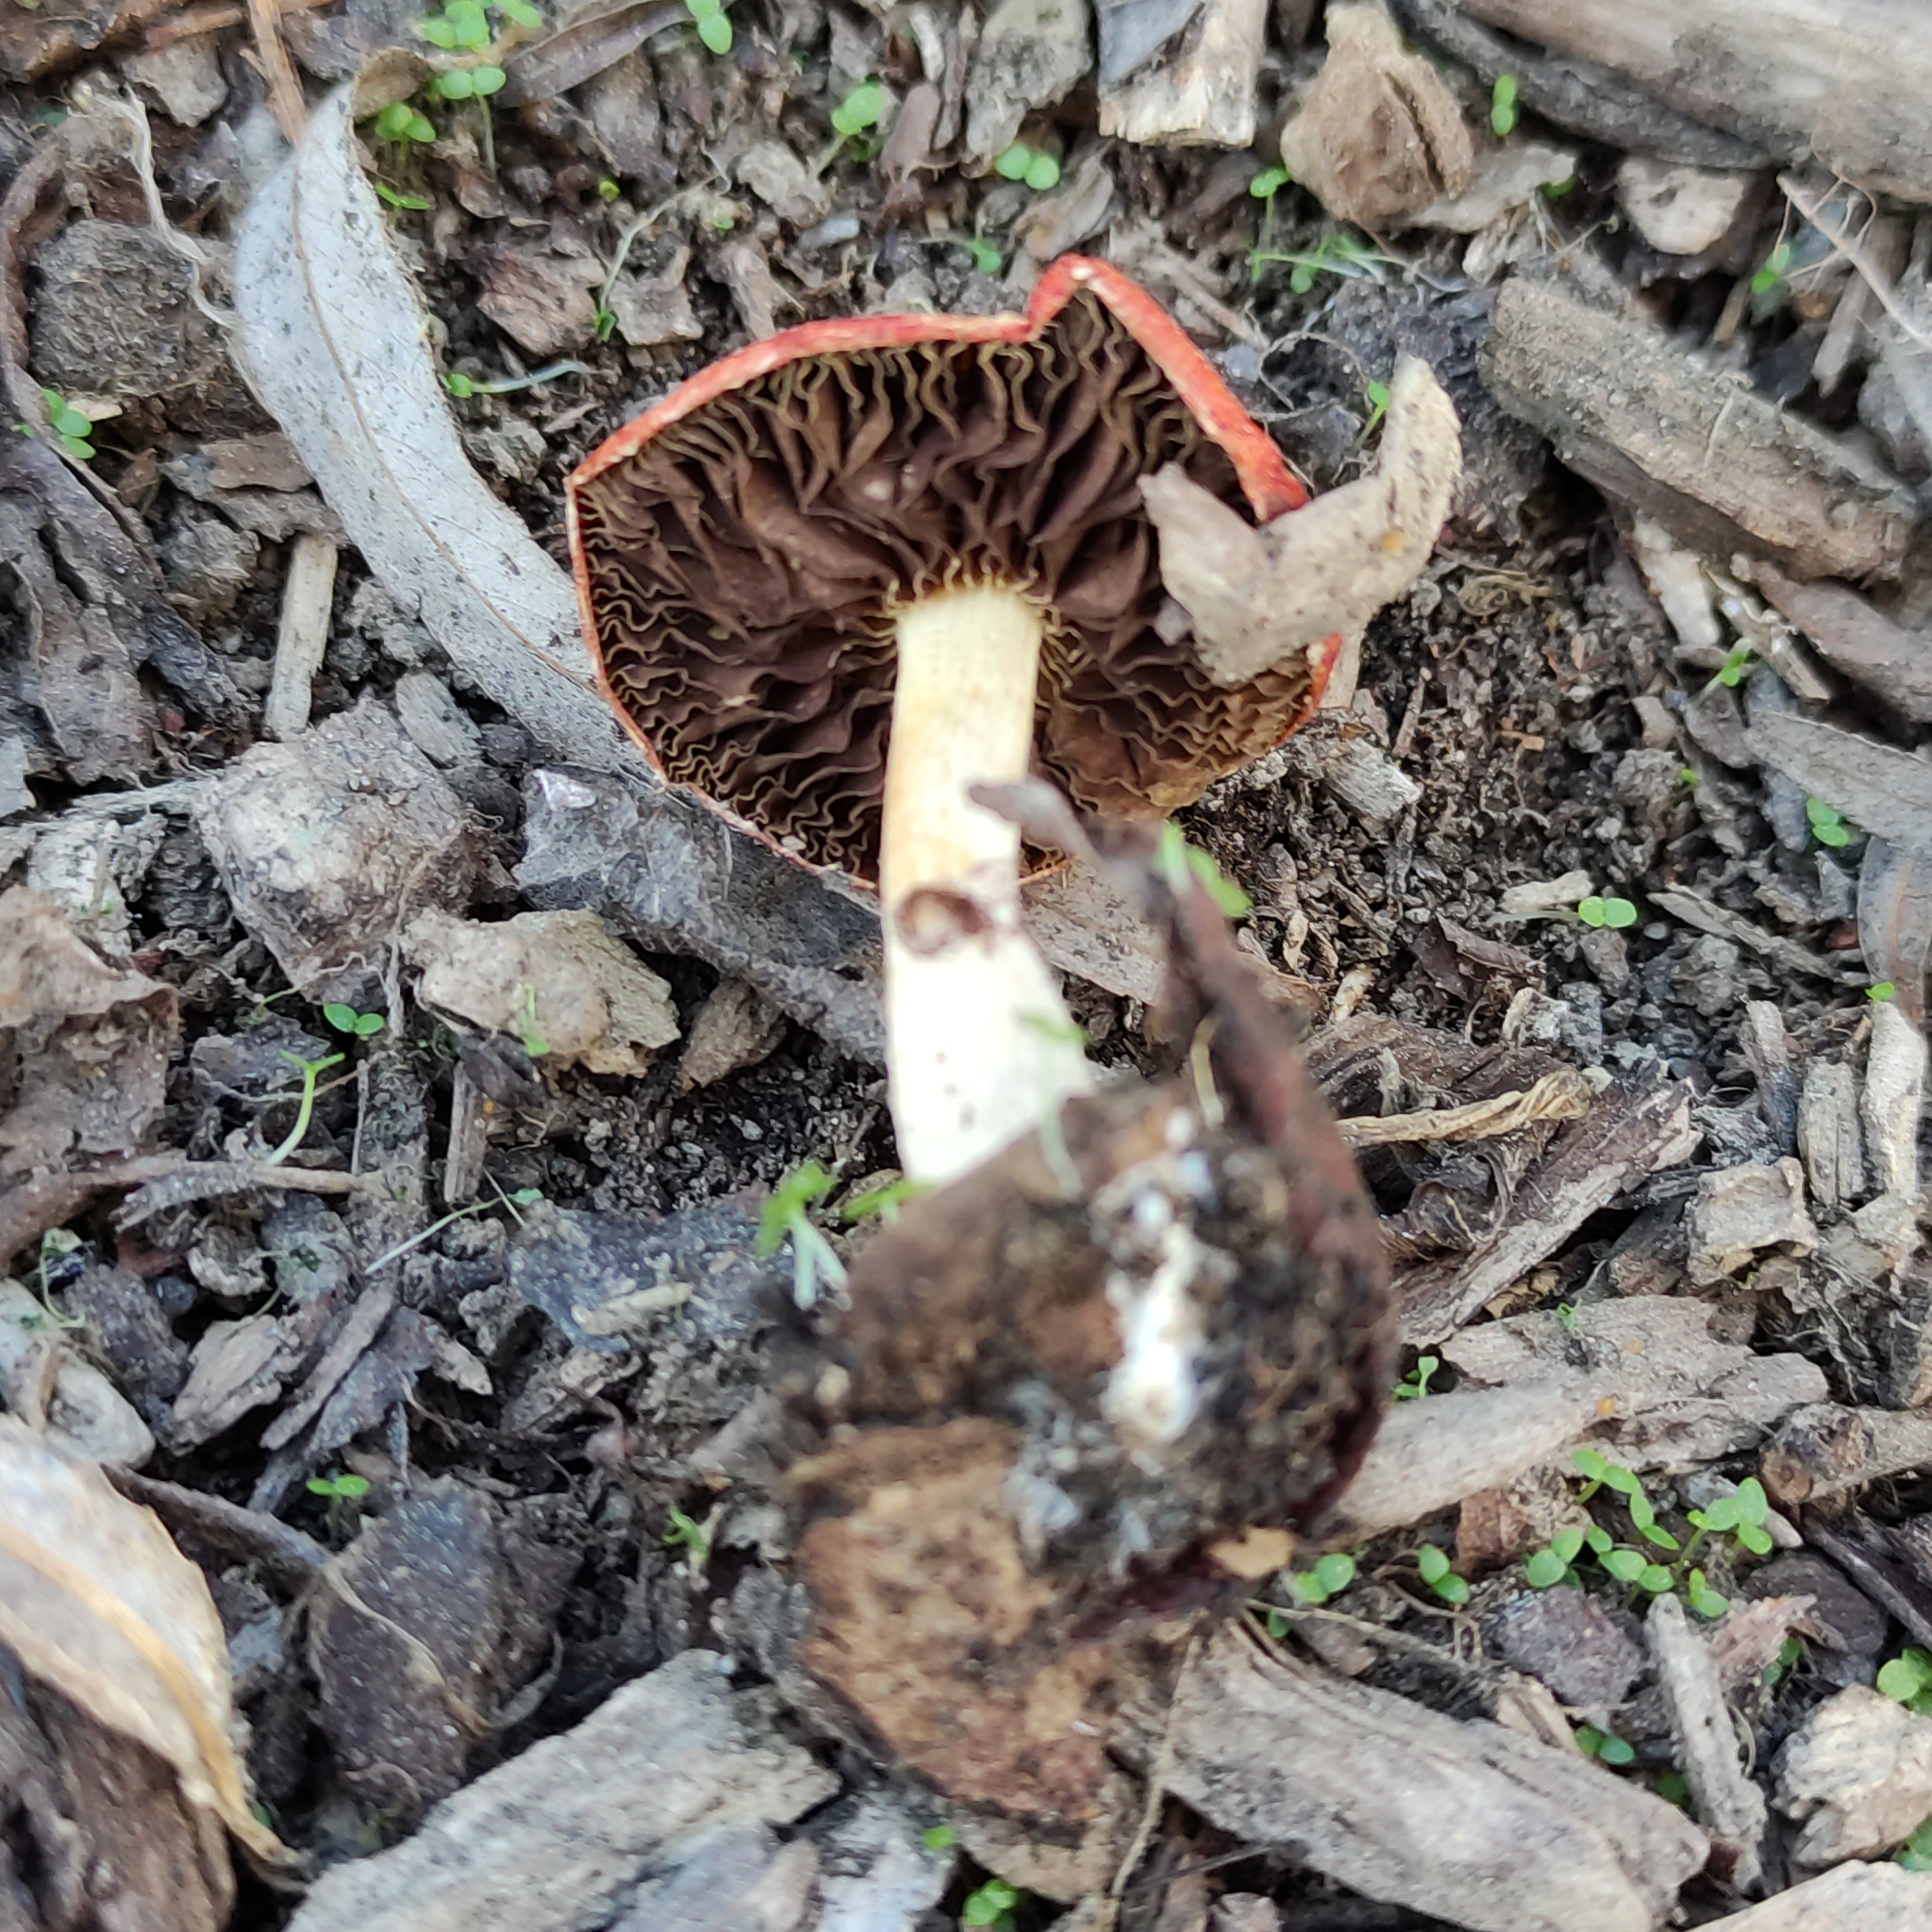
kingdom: Fungi
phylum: Basidiomycota
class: Agaricomycetes
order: Agaricales
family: Strophariaceae
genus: Leratiomyces
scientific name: Leratiomyces ceres
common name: Redlead roundhead
